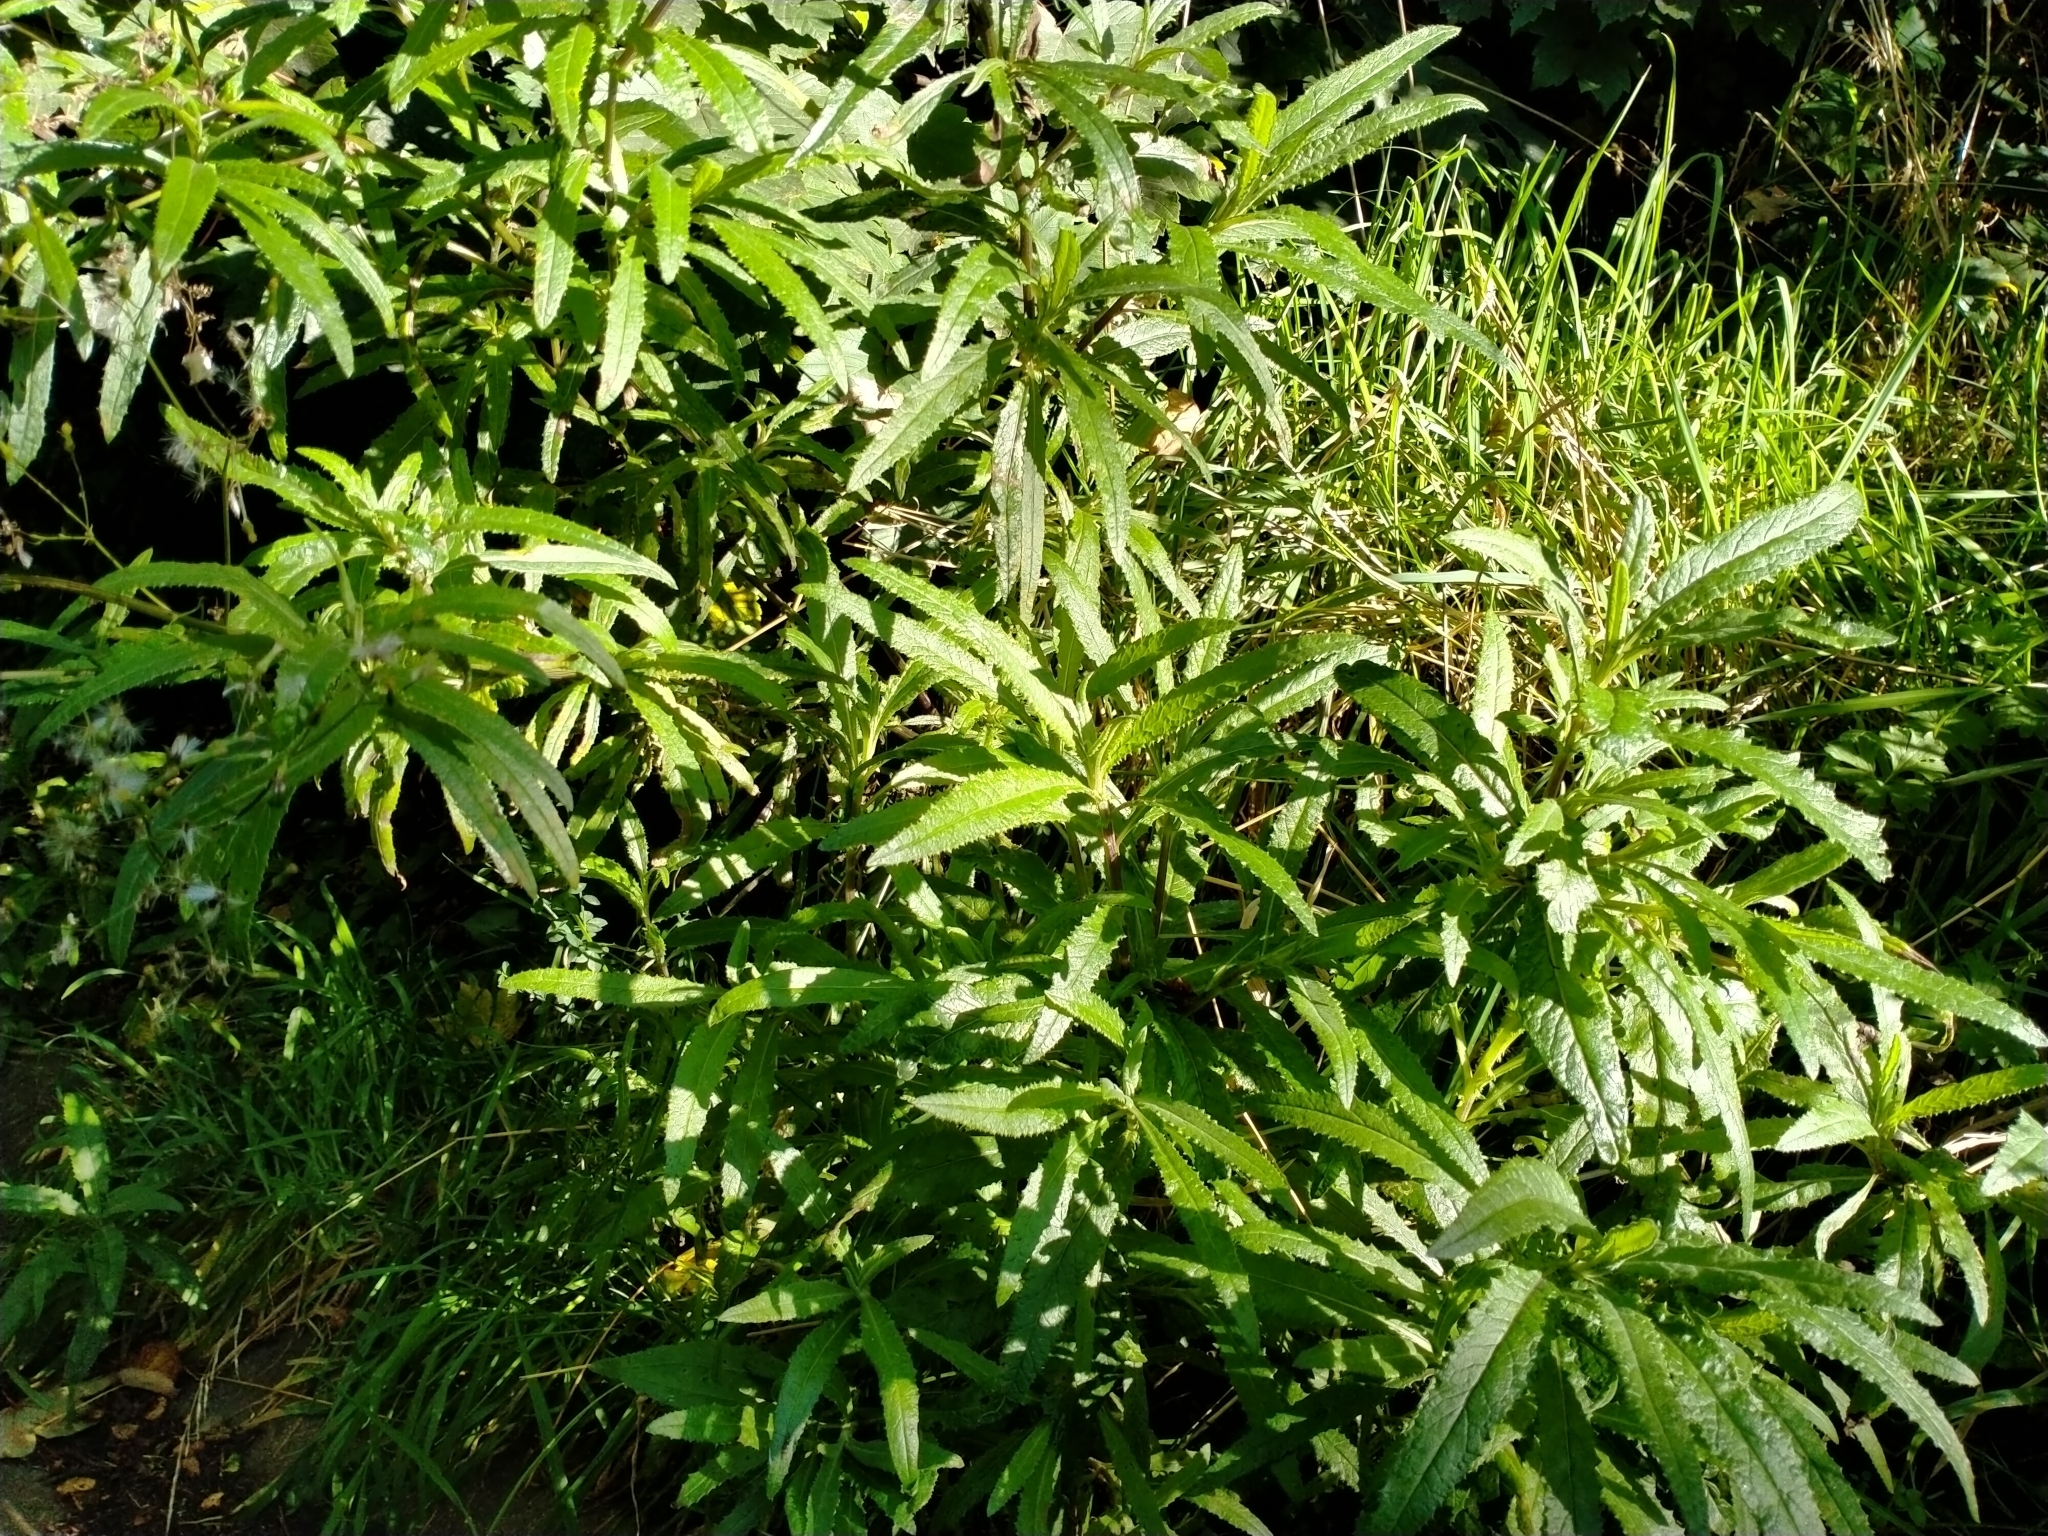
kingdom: Plantae
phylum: Tracheophyta
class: Magnoliopsida
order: Asterales
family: Asteraceae
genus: Senecio
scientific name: Senecio minimus
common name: Toothed fireweed
